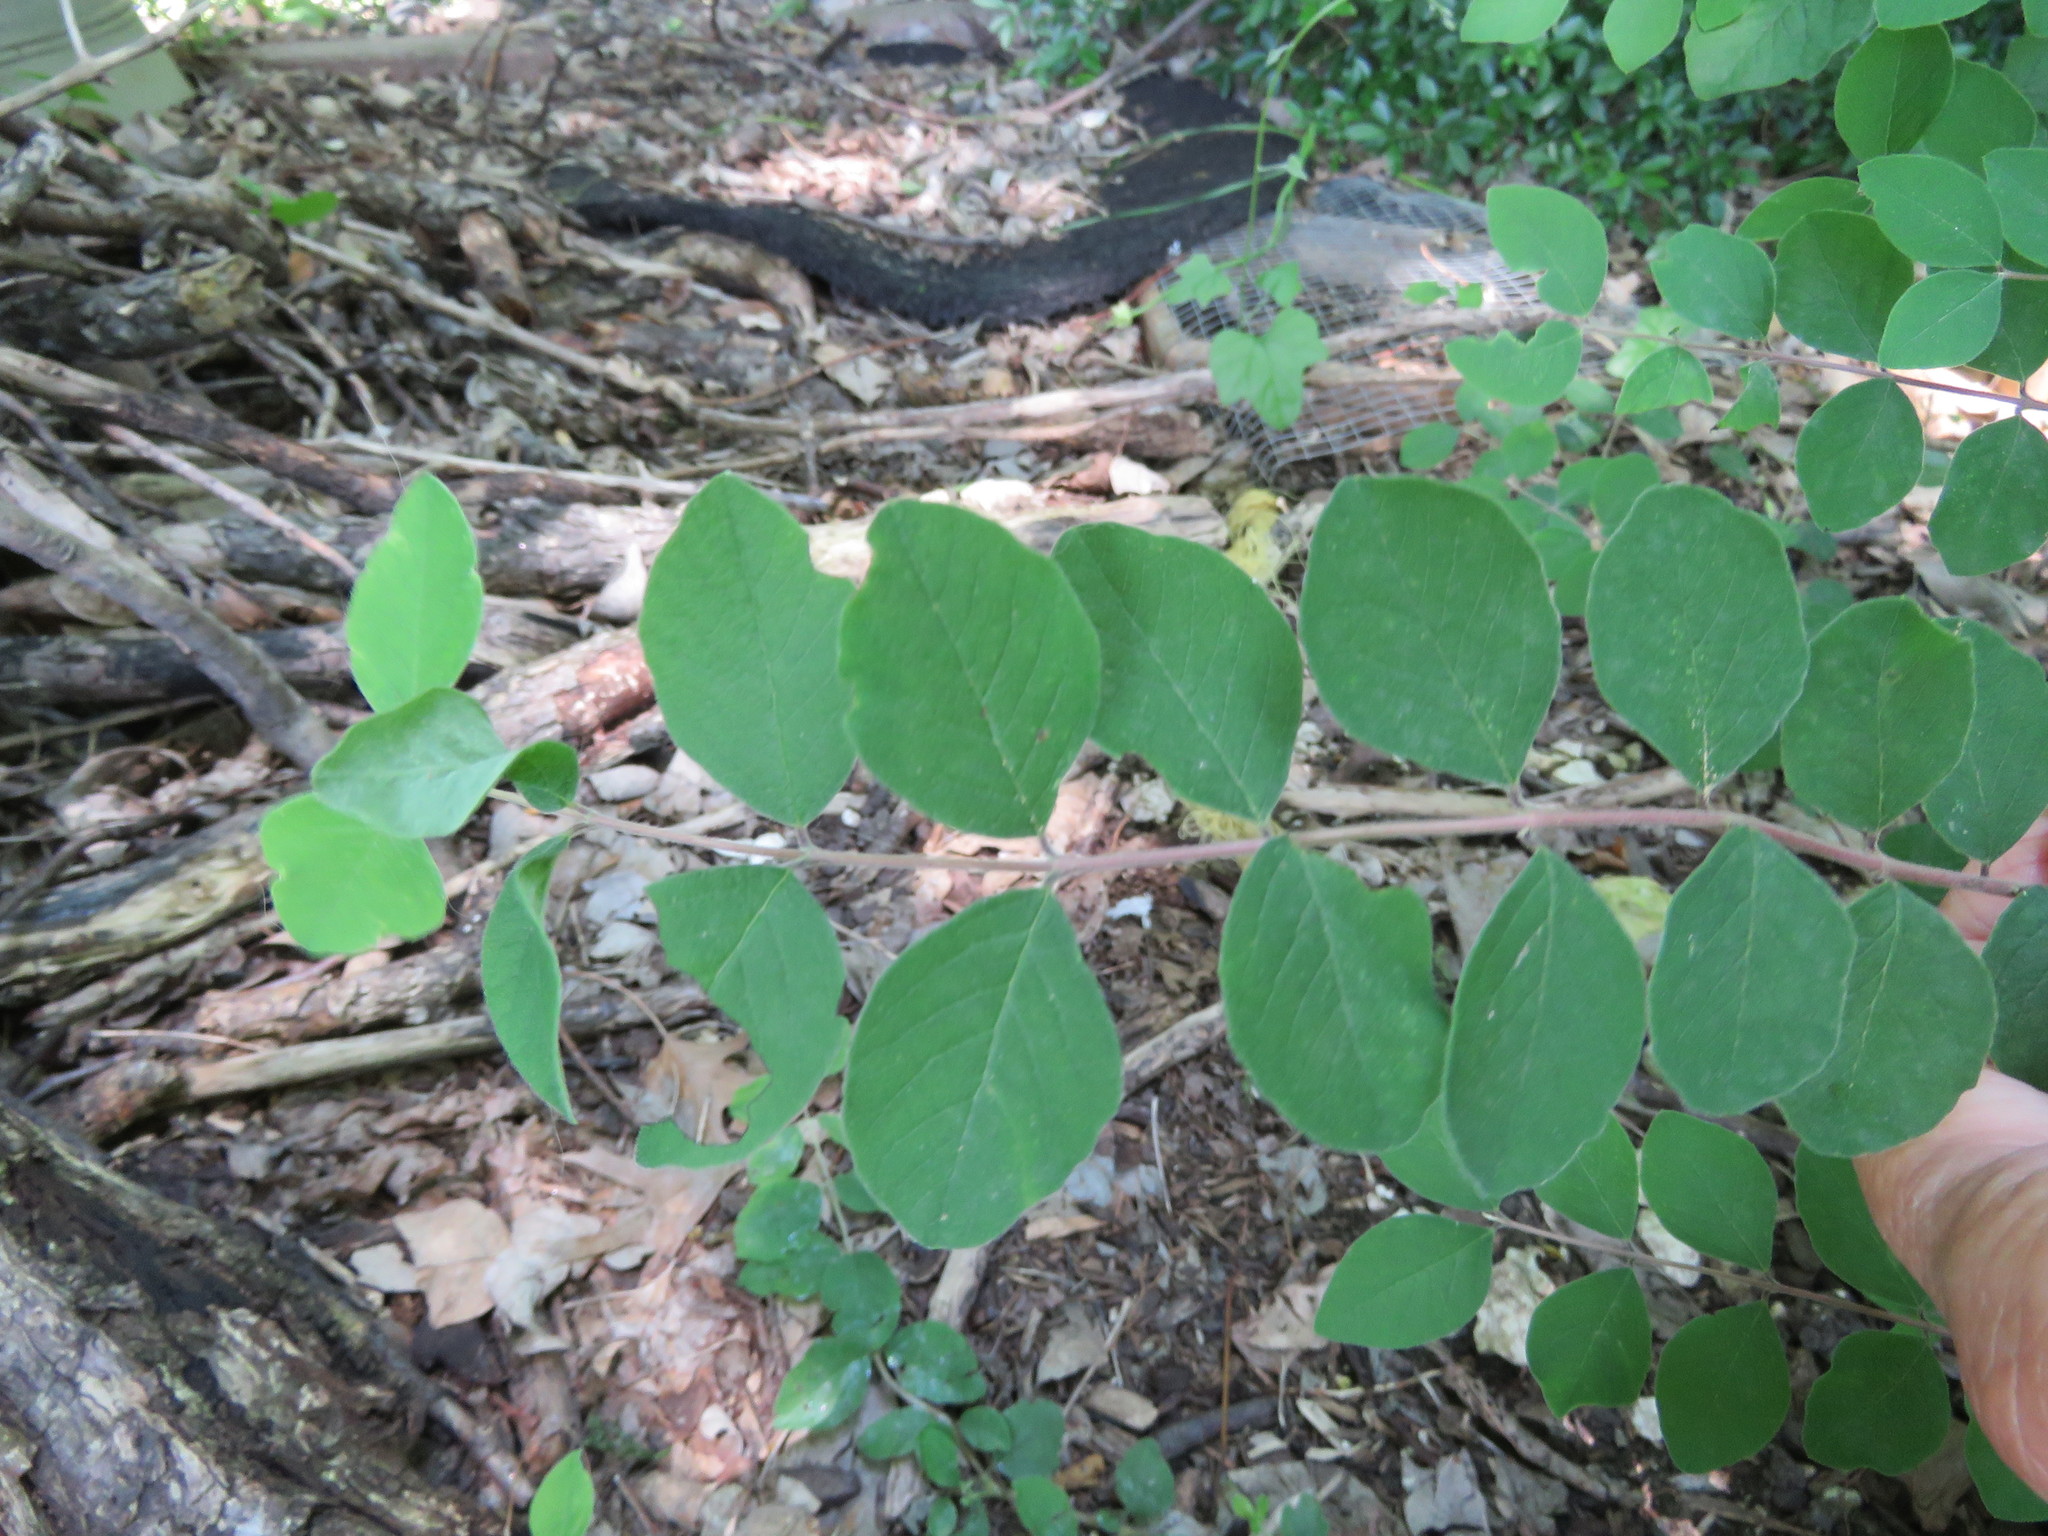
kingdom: Plantae
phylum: Tracheophyta
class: Magnoliopsida
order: Dipsacales
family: Caprifoliaceae
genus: Symphoricarpos
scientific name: Symphoricarpos orbiculatus
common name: Coralberry
